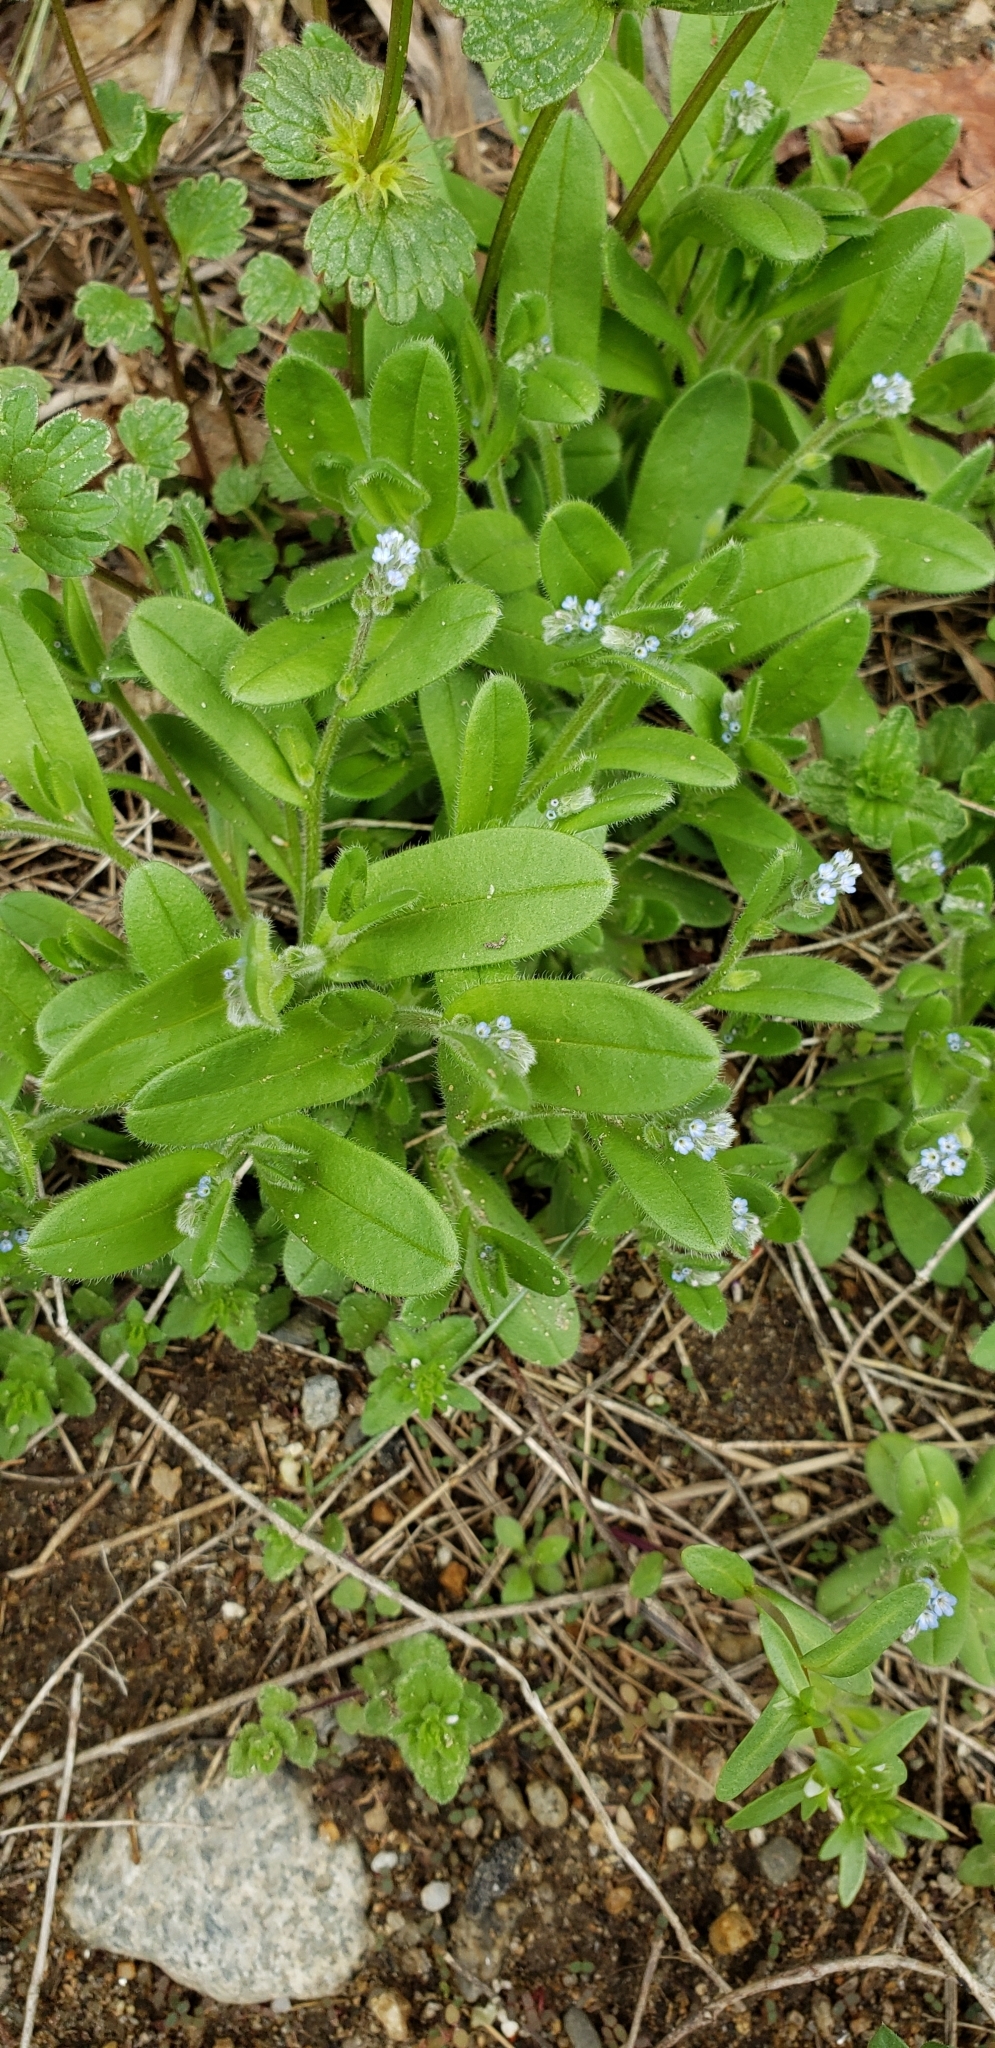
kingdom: Plantae
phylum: Tracheophyta
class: Magnoliopsida
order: Boraginales
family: Boraginaceae
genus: Myosotis
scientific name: Myosotis stricta
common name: Strict forget-me-not
